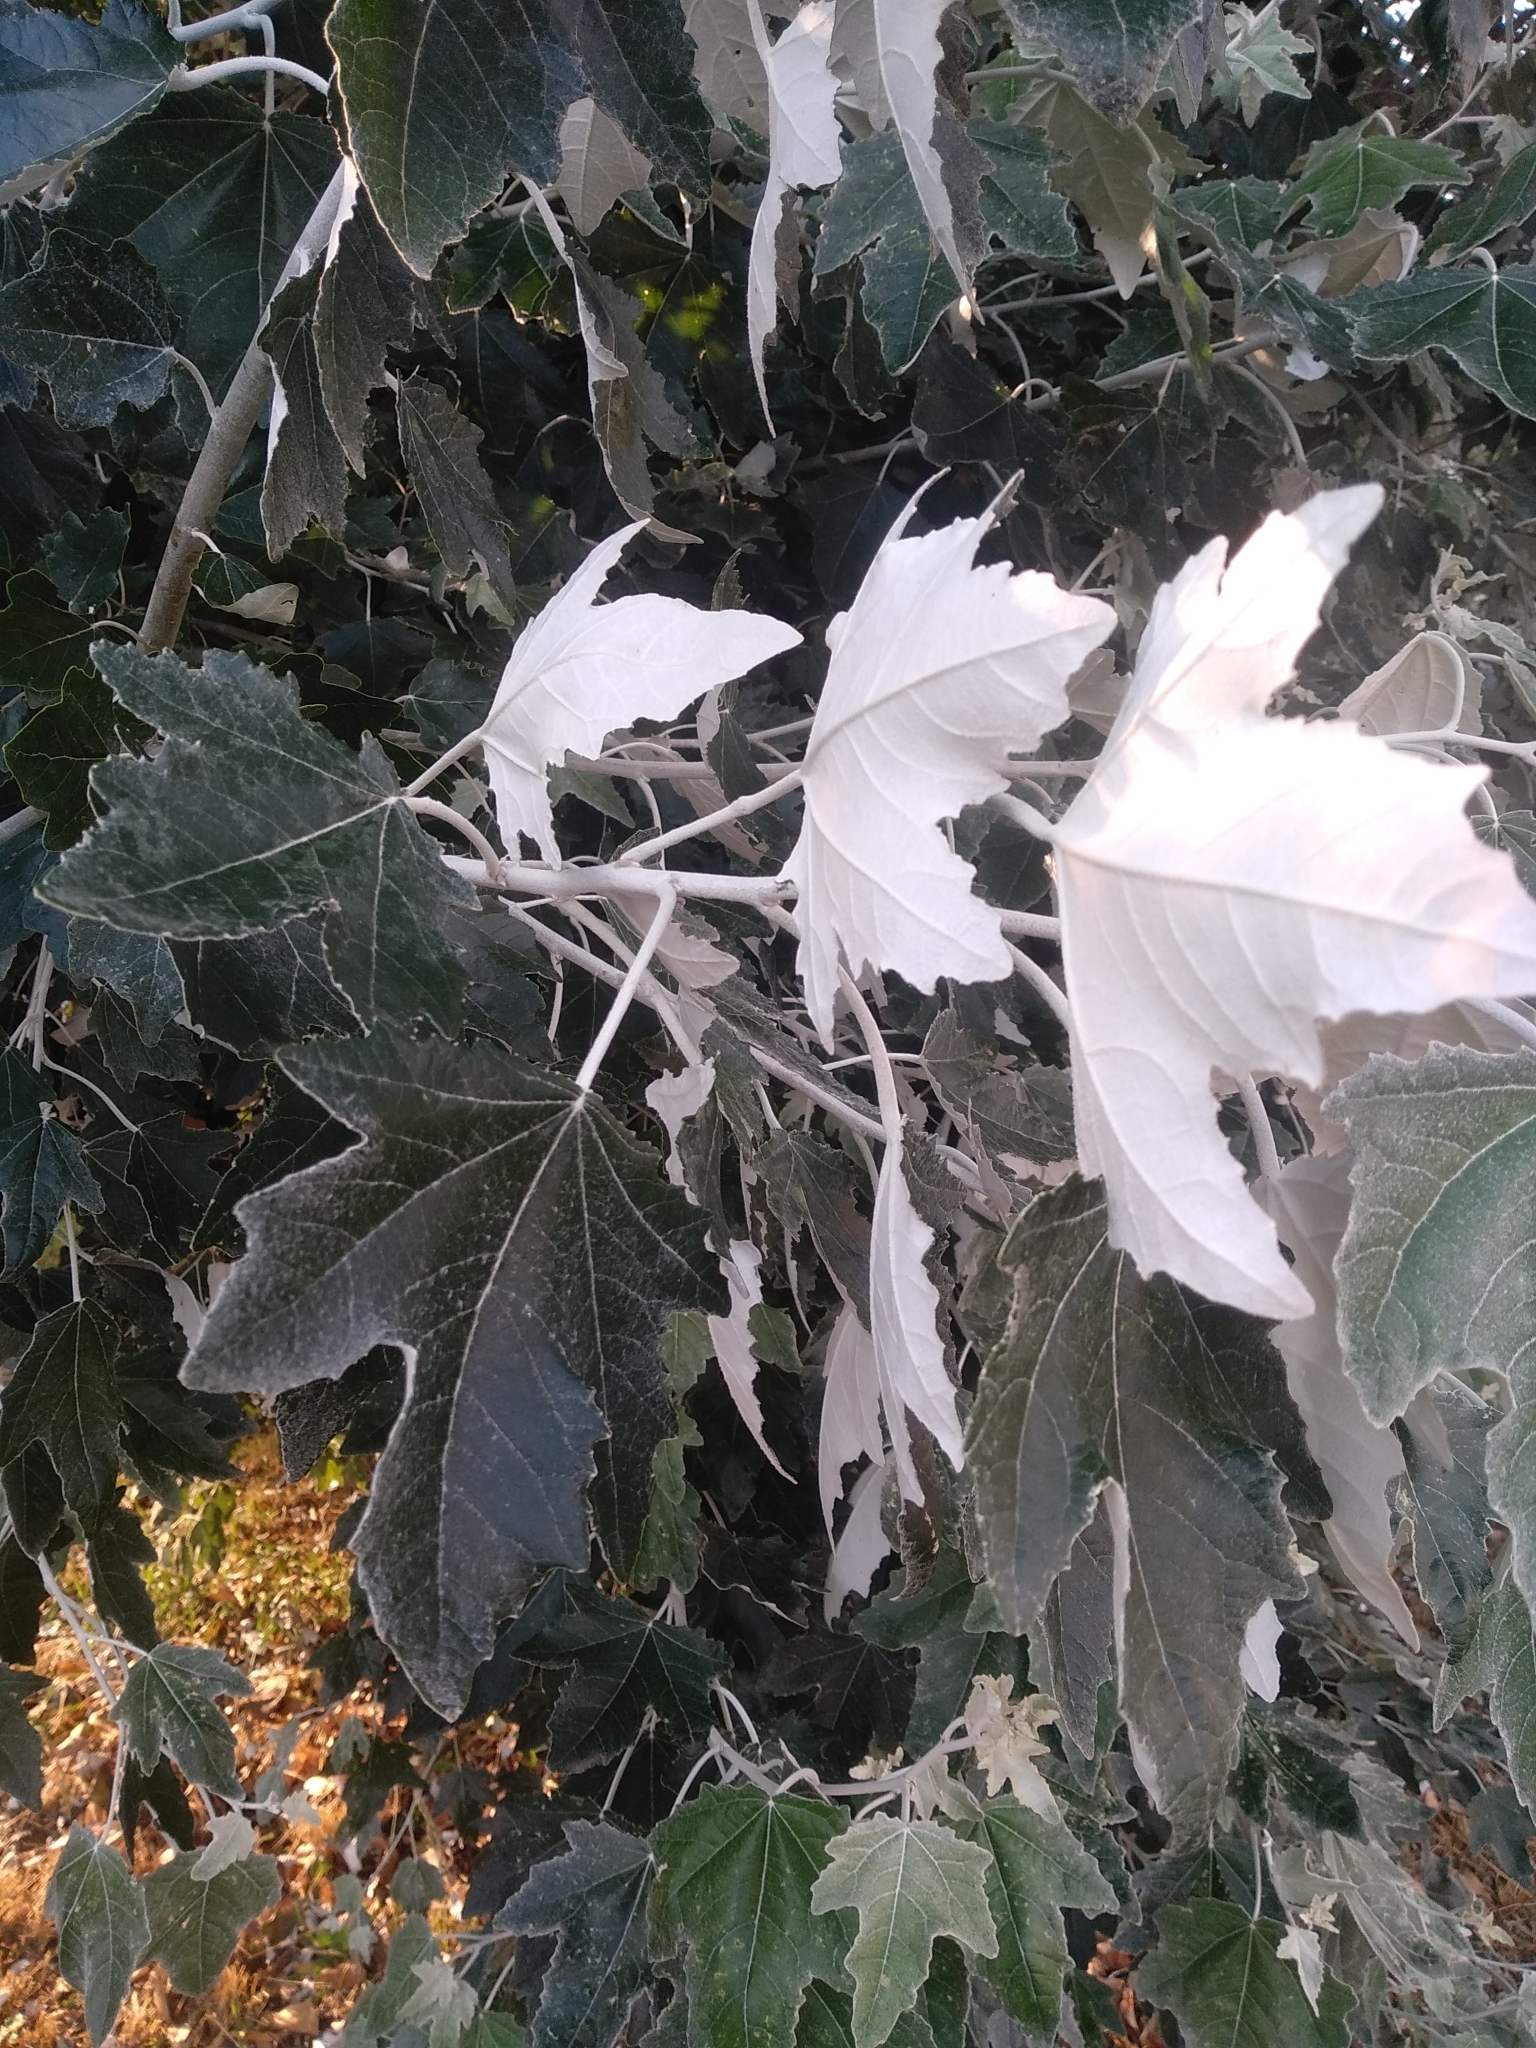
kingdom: Plantae
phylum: Tracheophyta
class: Magnoliopsida
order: Malpighiales
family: Salicaceae
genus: Populus
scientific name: Populus alba
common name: White poplar
